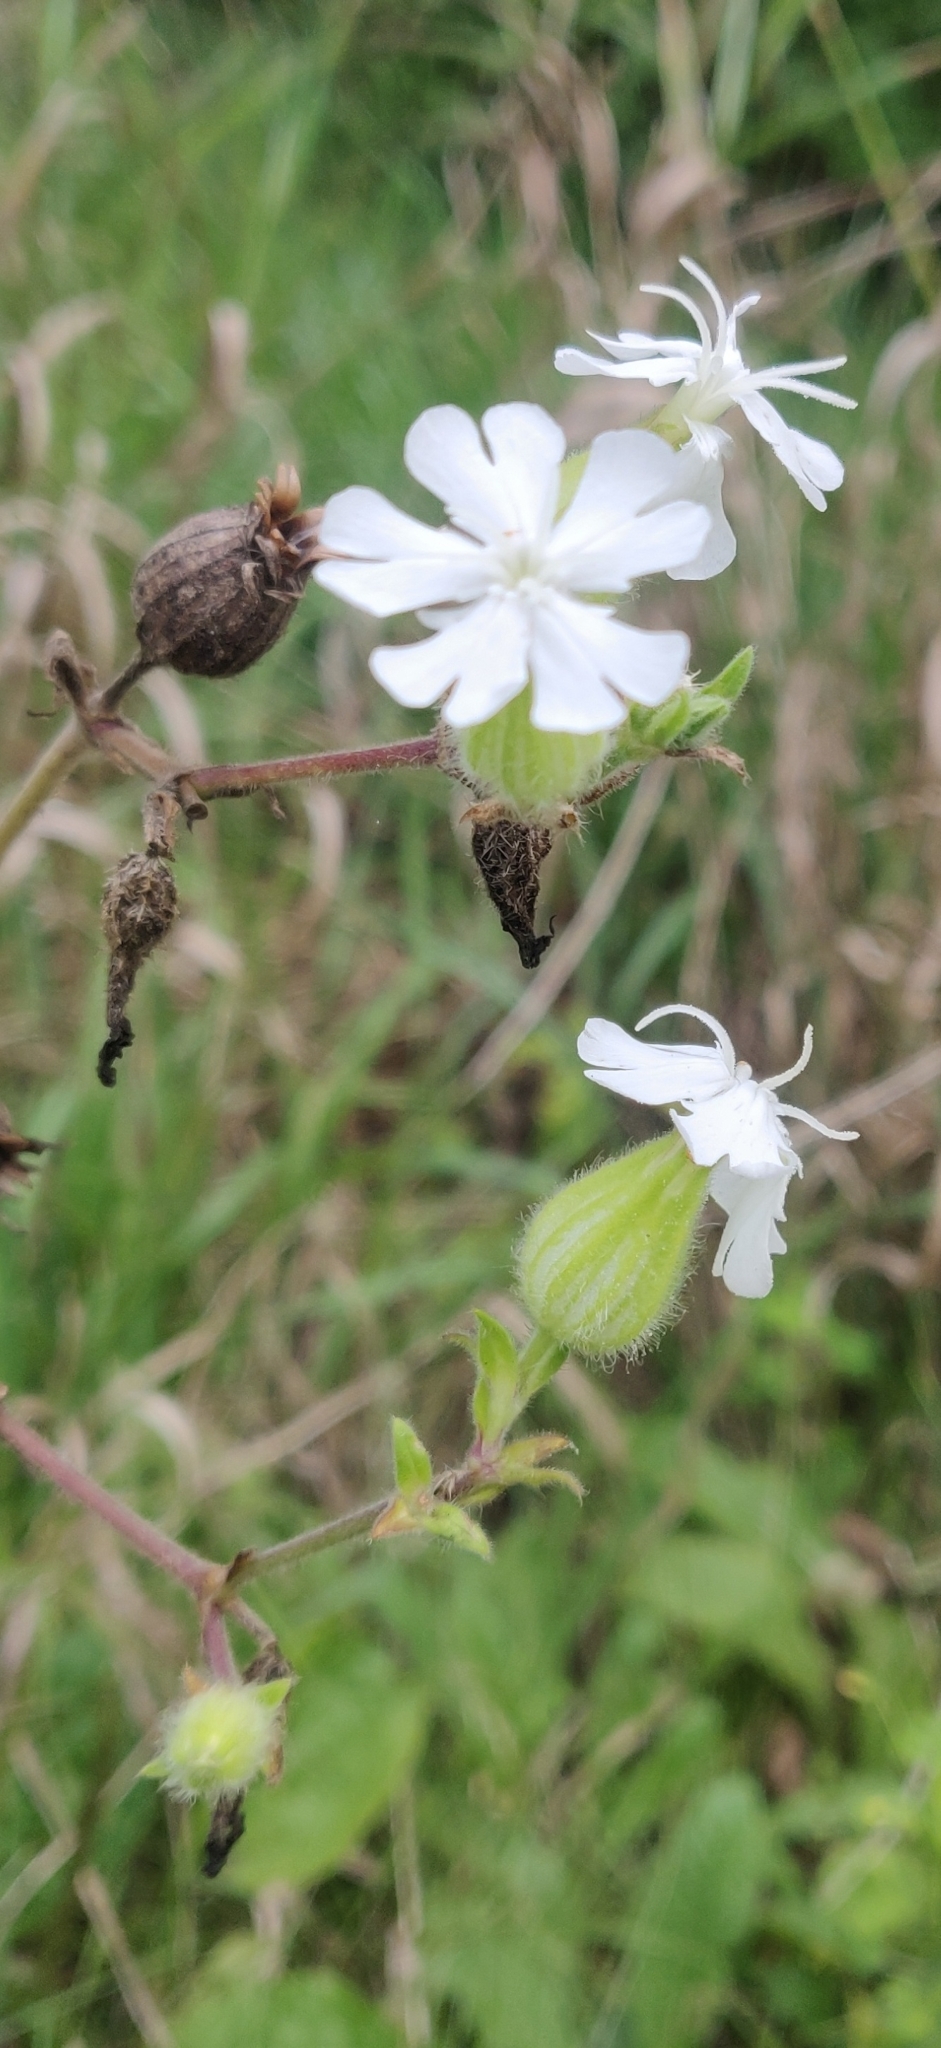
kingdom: Plantae
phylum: Tracheophyta
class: Magnoliopsida
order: Caryophyllales
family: Caryophyllaceae
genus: Silene
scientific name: Silene latifolia
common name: White campion
